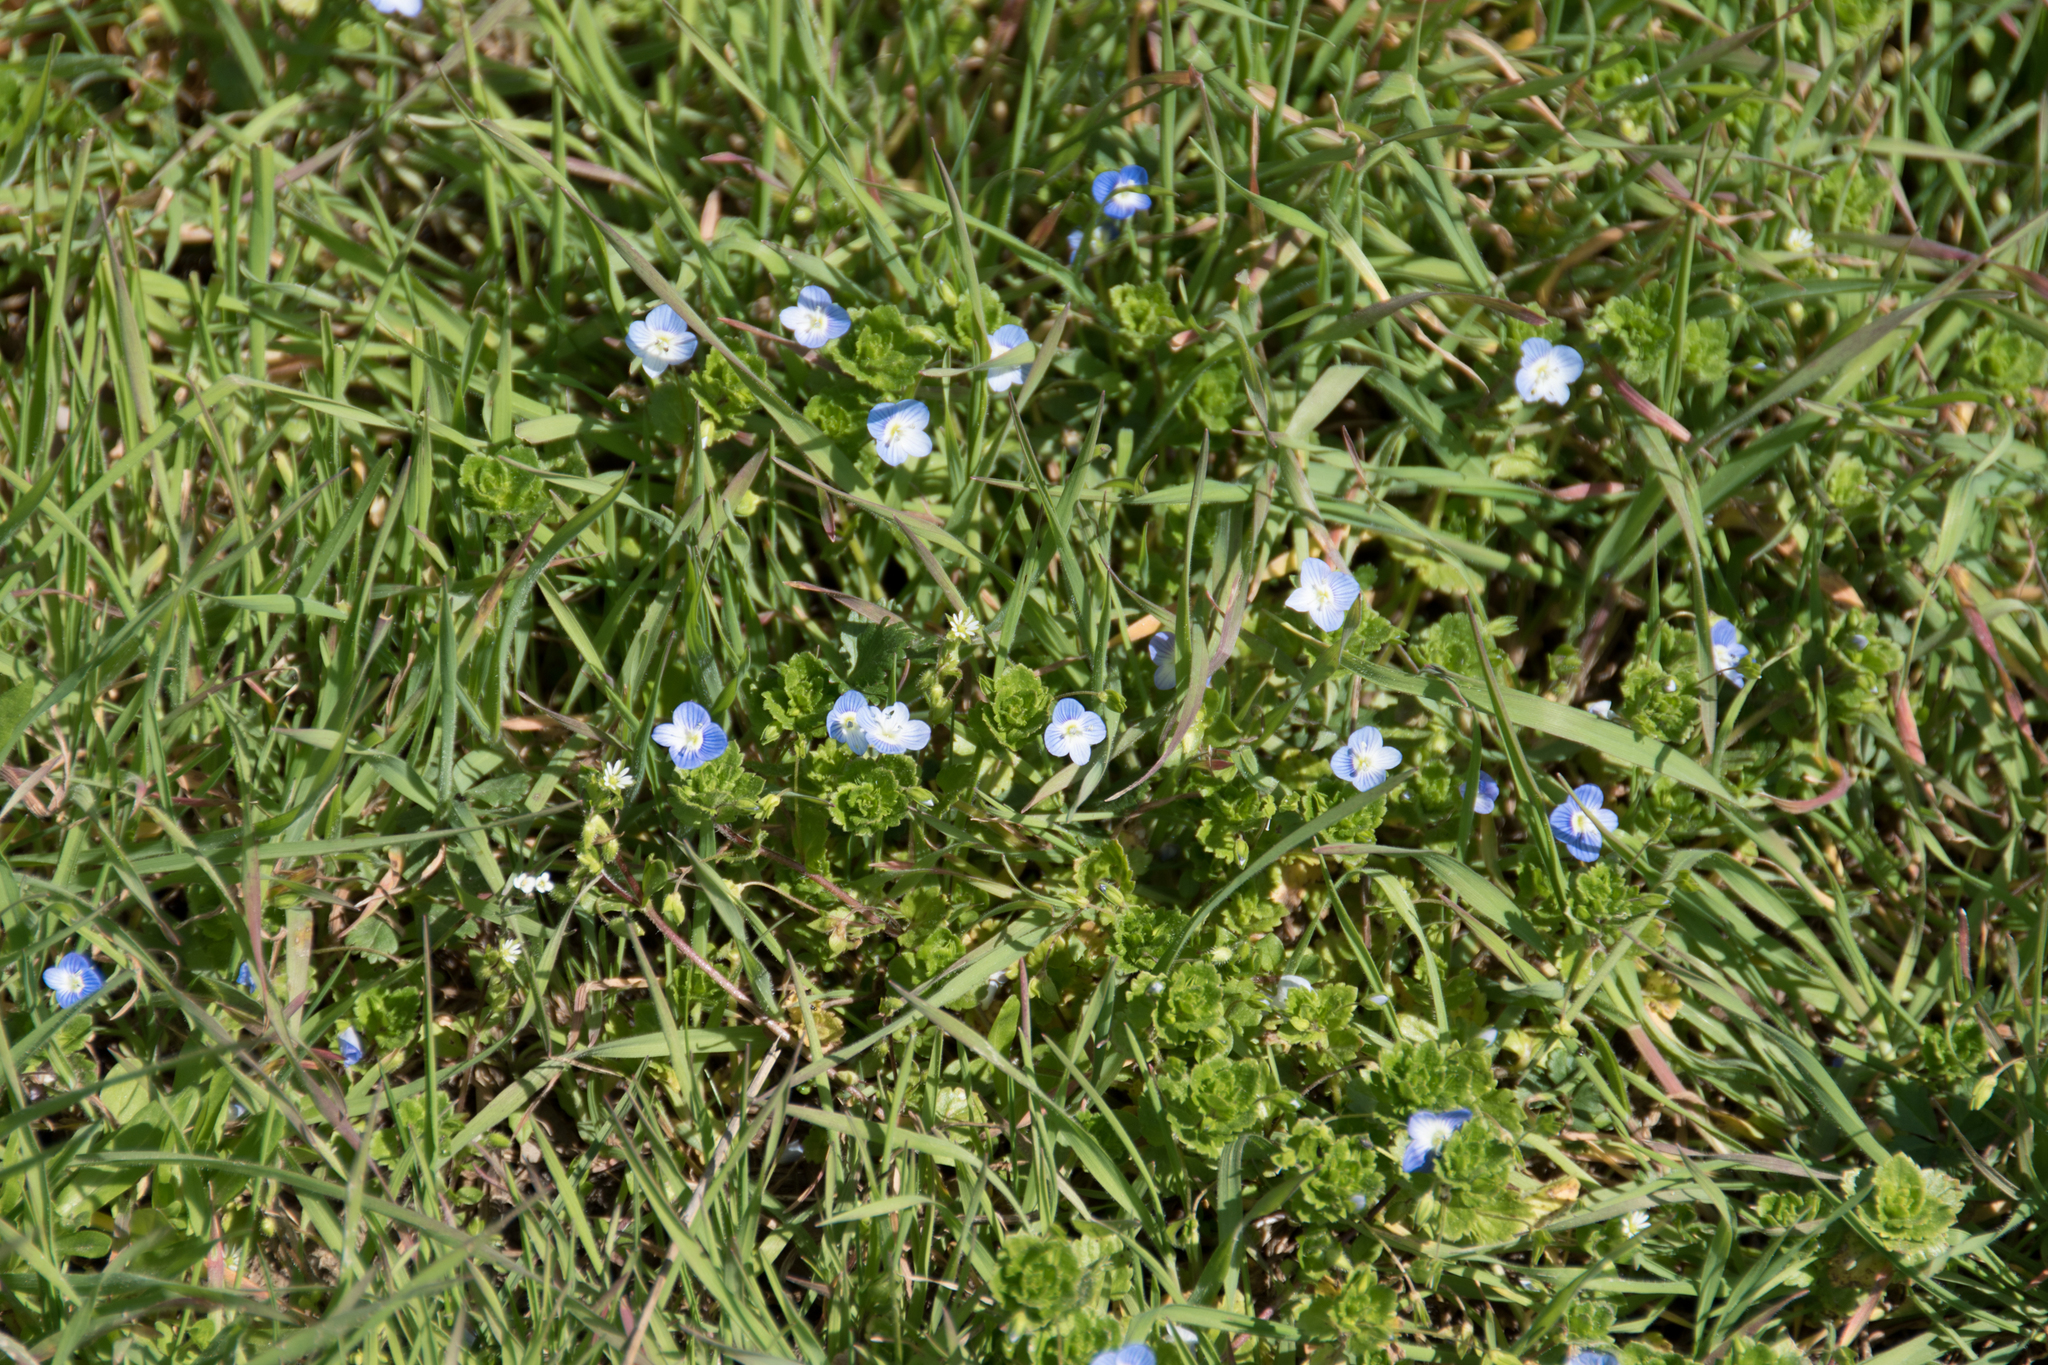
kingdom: Plantae
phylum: Tracheophyta
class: Magnoliopsida
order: Lamiales
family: Plantaginaceae
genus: Veronica
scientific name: Veronica persica
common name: Common field-speedwell
